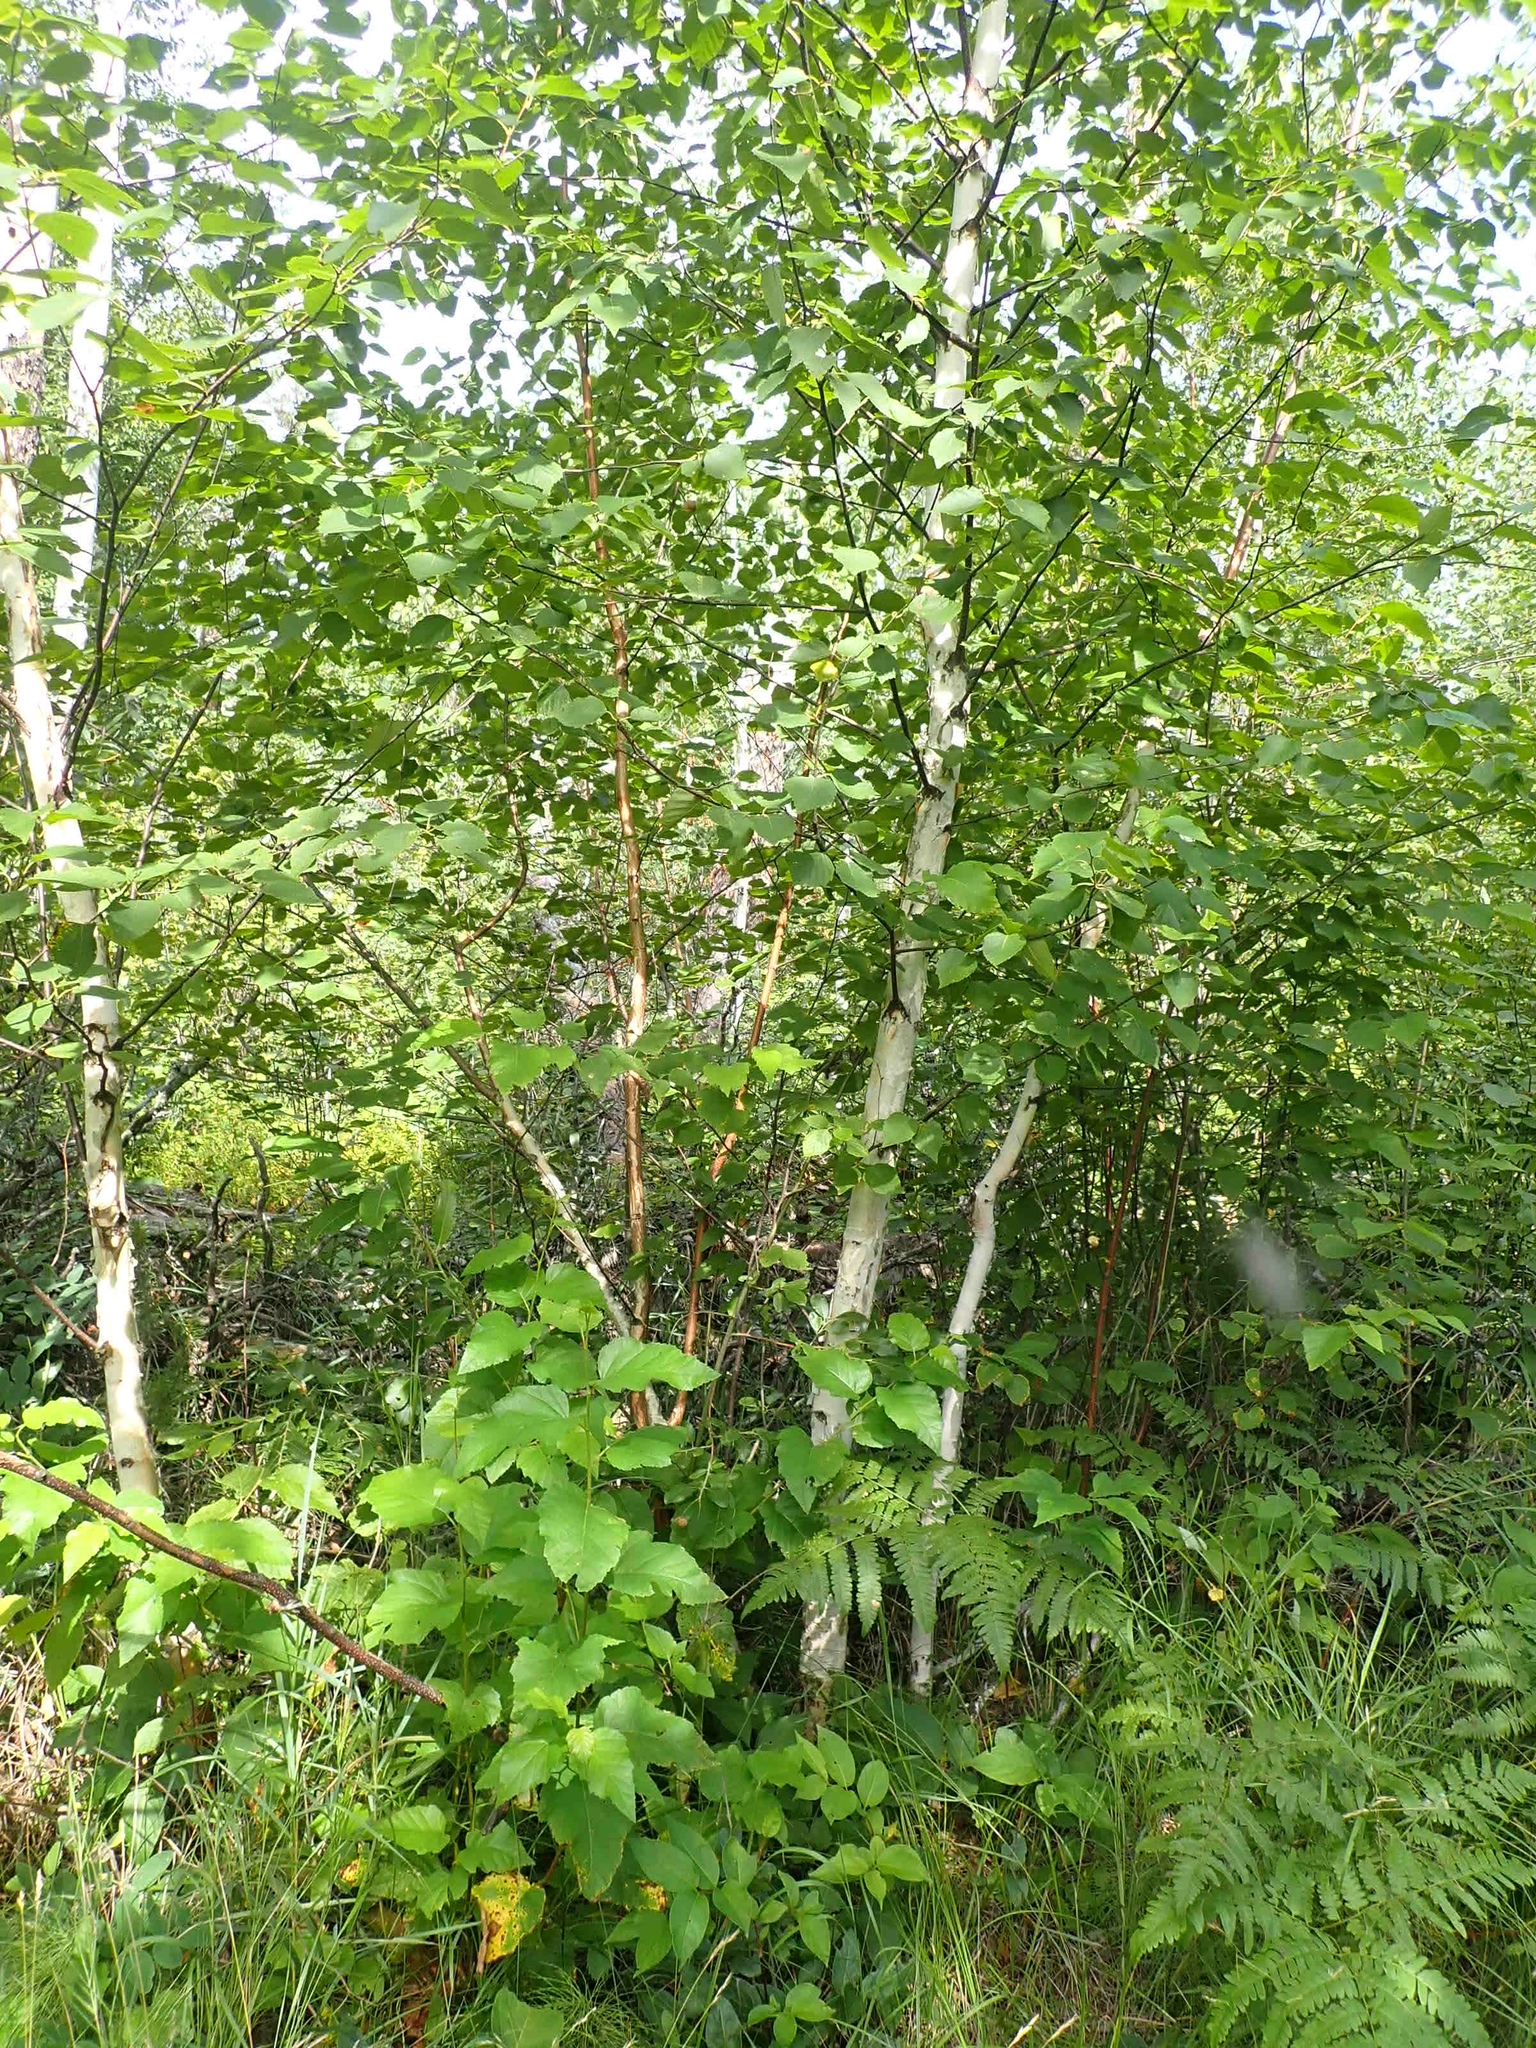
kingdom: Plantae
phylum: Tracheophyta
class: Magnoliopsida
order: Fagales
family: Betulaceae
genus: Betula
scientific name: Betula papyrifera
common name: Paper birch
